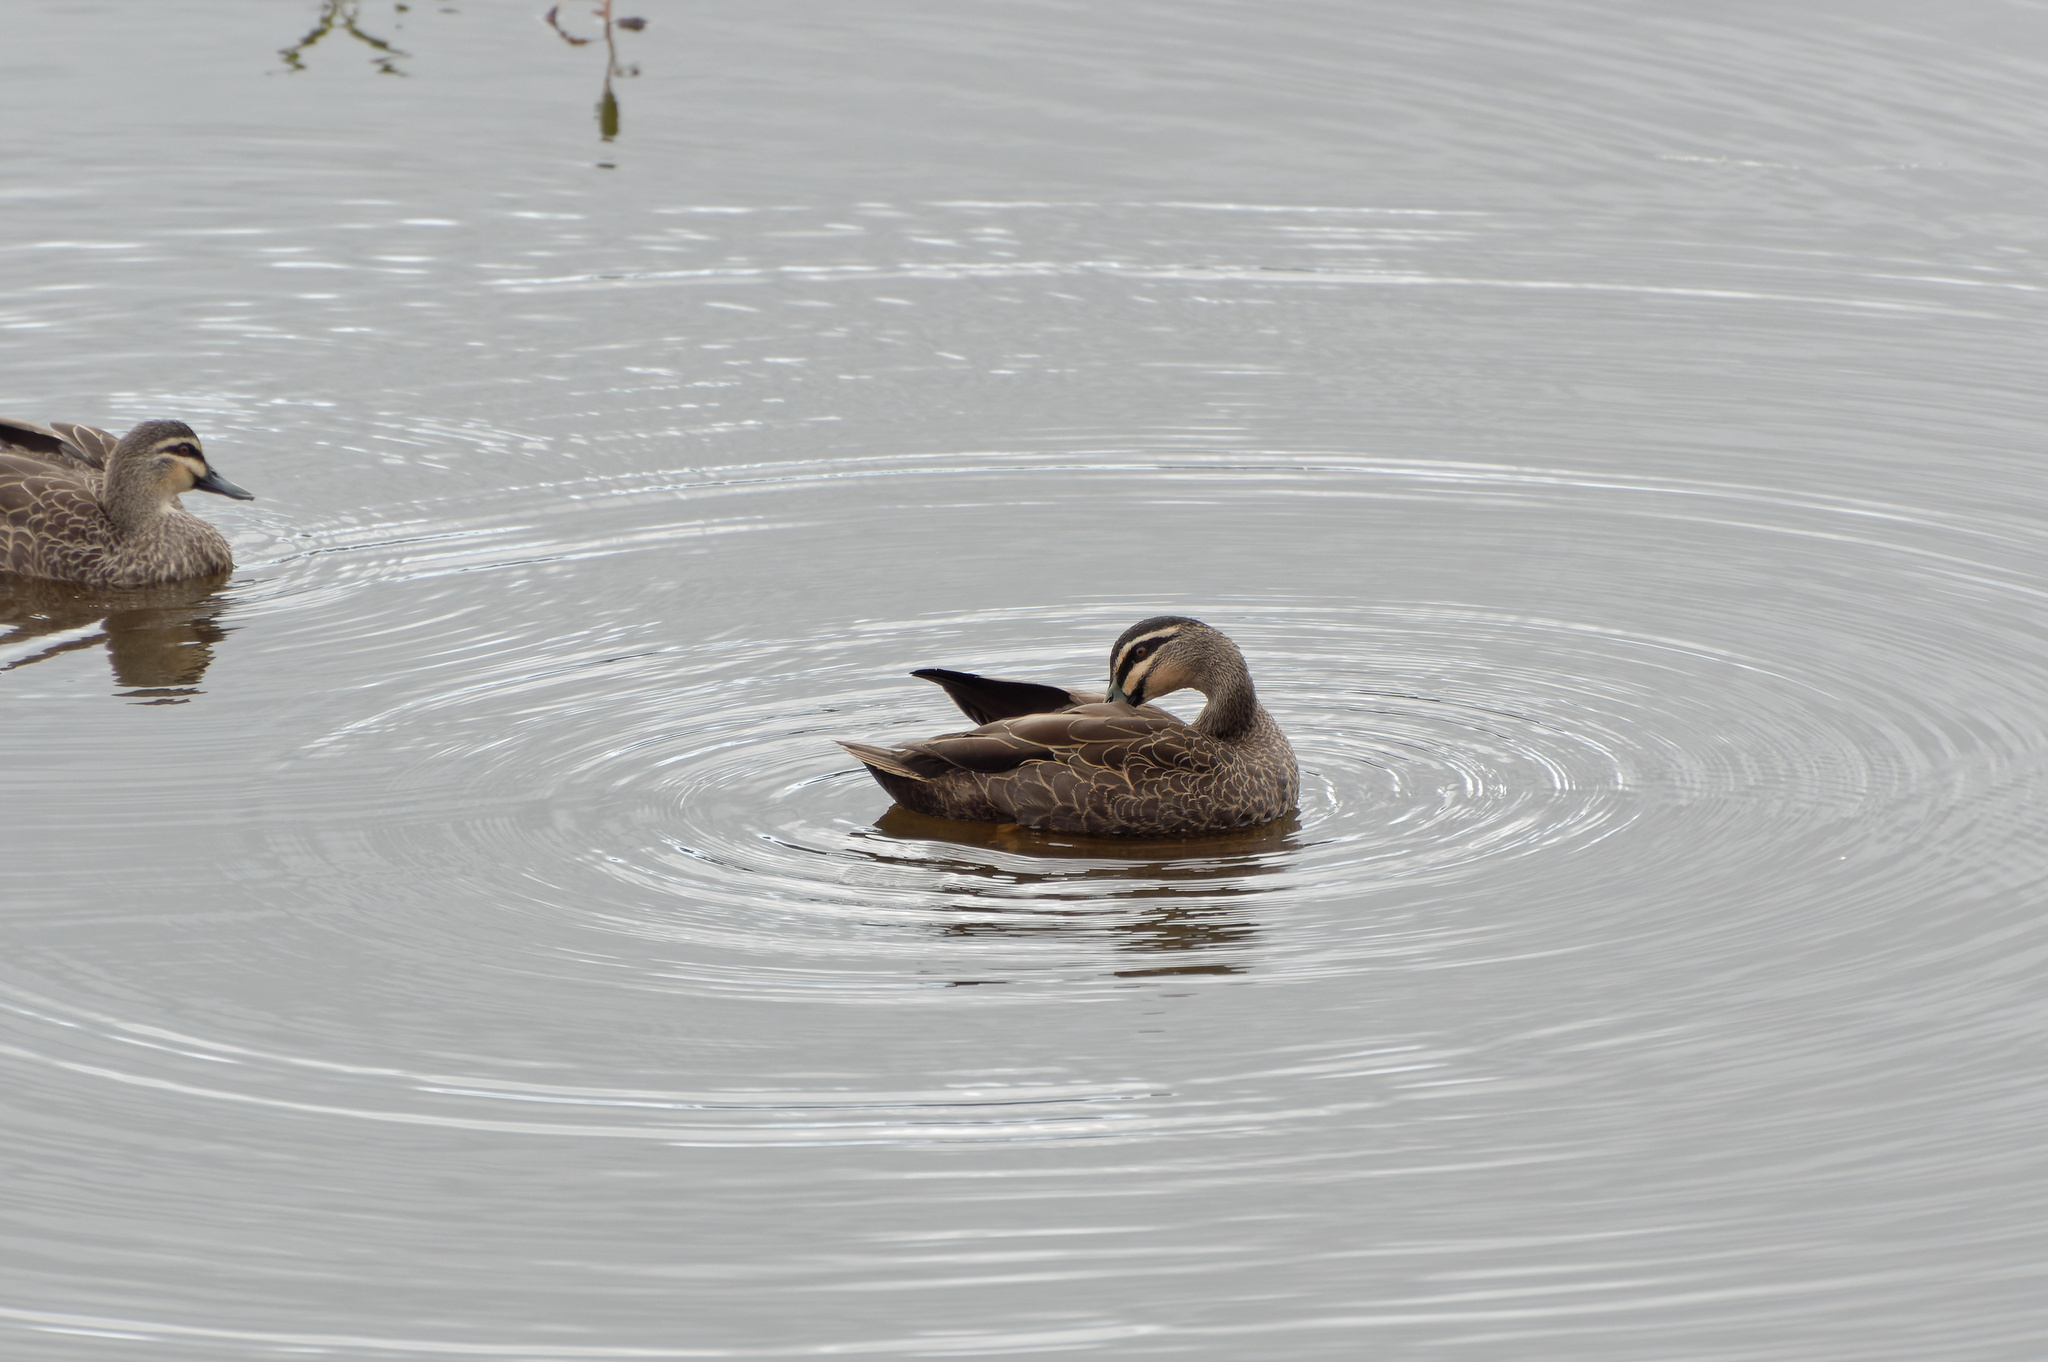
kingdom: Animalia
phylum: Chordata
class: Aves
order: Anseriformes
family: Anatidae
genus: Anas
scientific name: Anas superciliosa
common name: Pacific black duck
